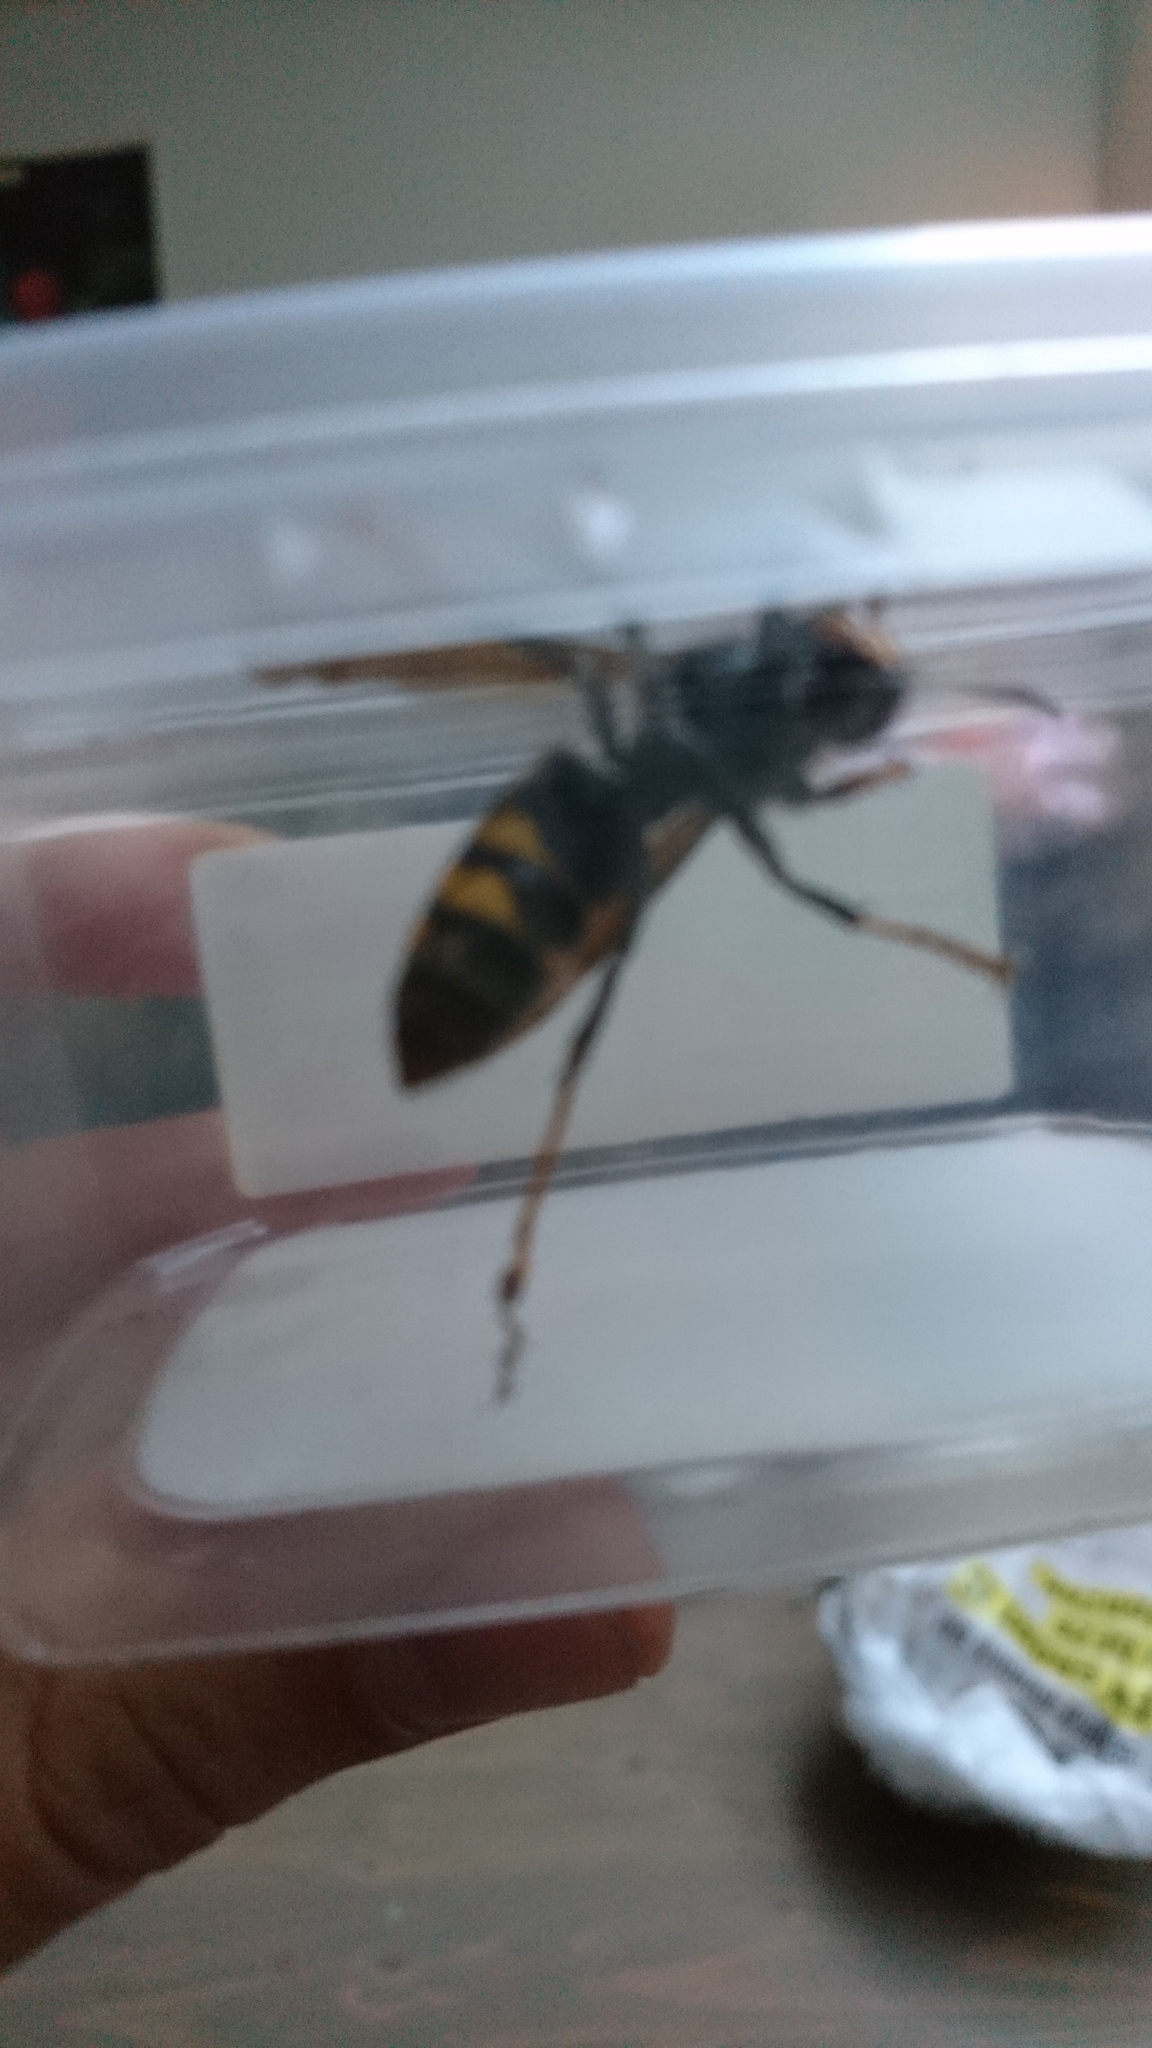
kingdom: Animalia
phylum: Arthropoda
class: Insecta
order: Hymenoptera
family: Vespidae
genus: Vespa
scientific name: Vespa velutina
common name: Asian hornet
